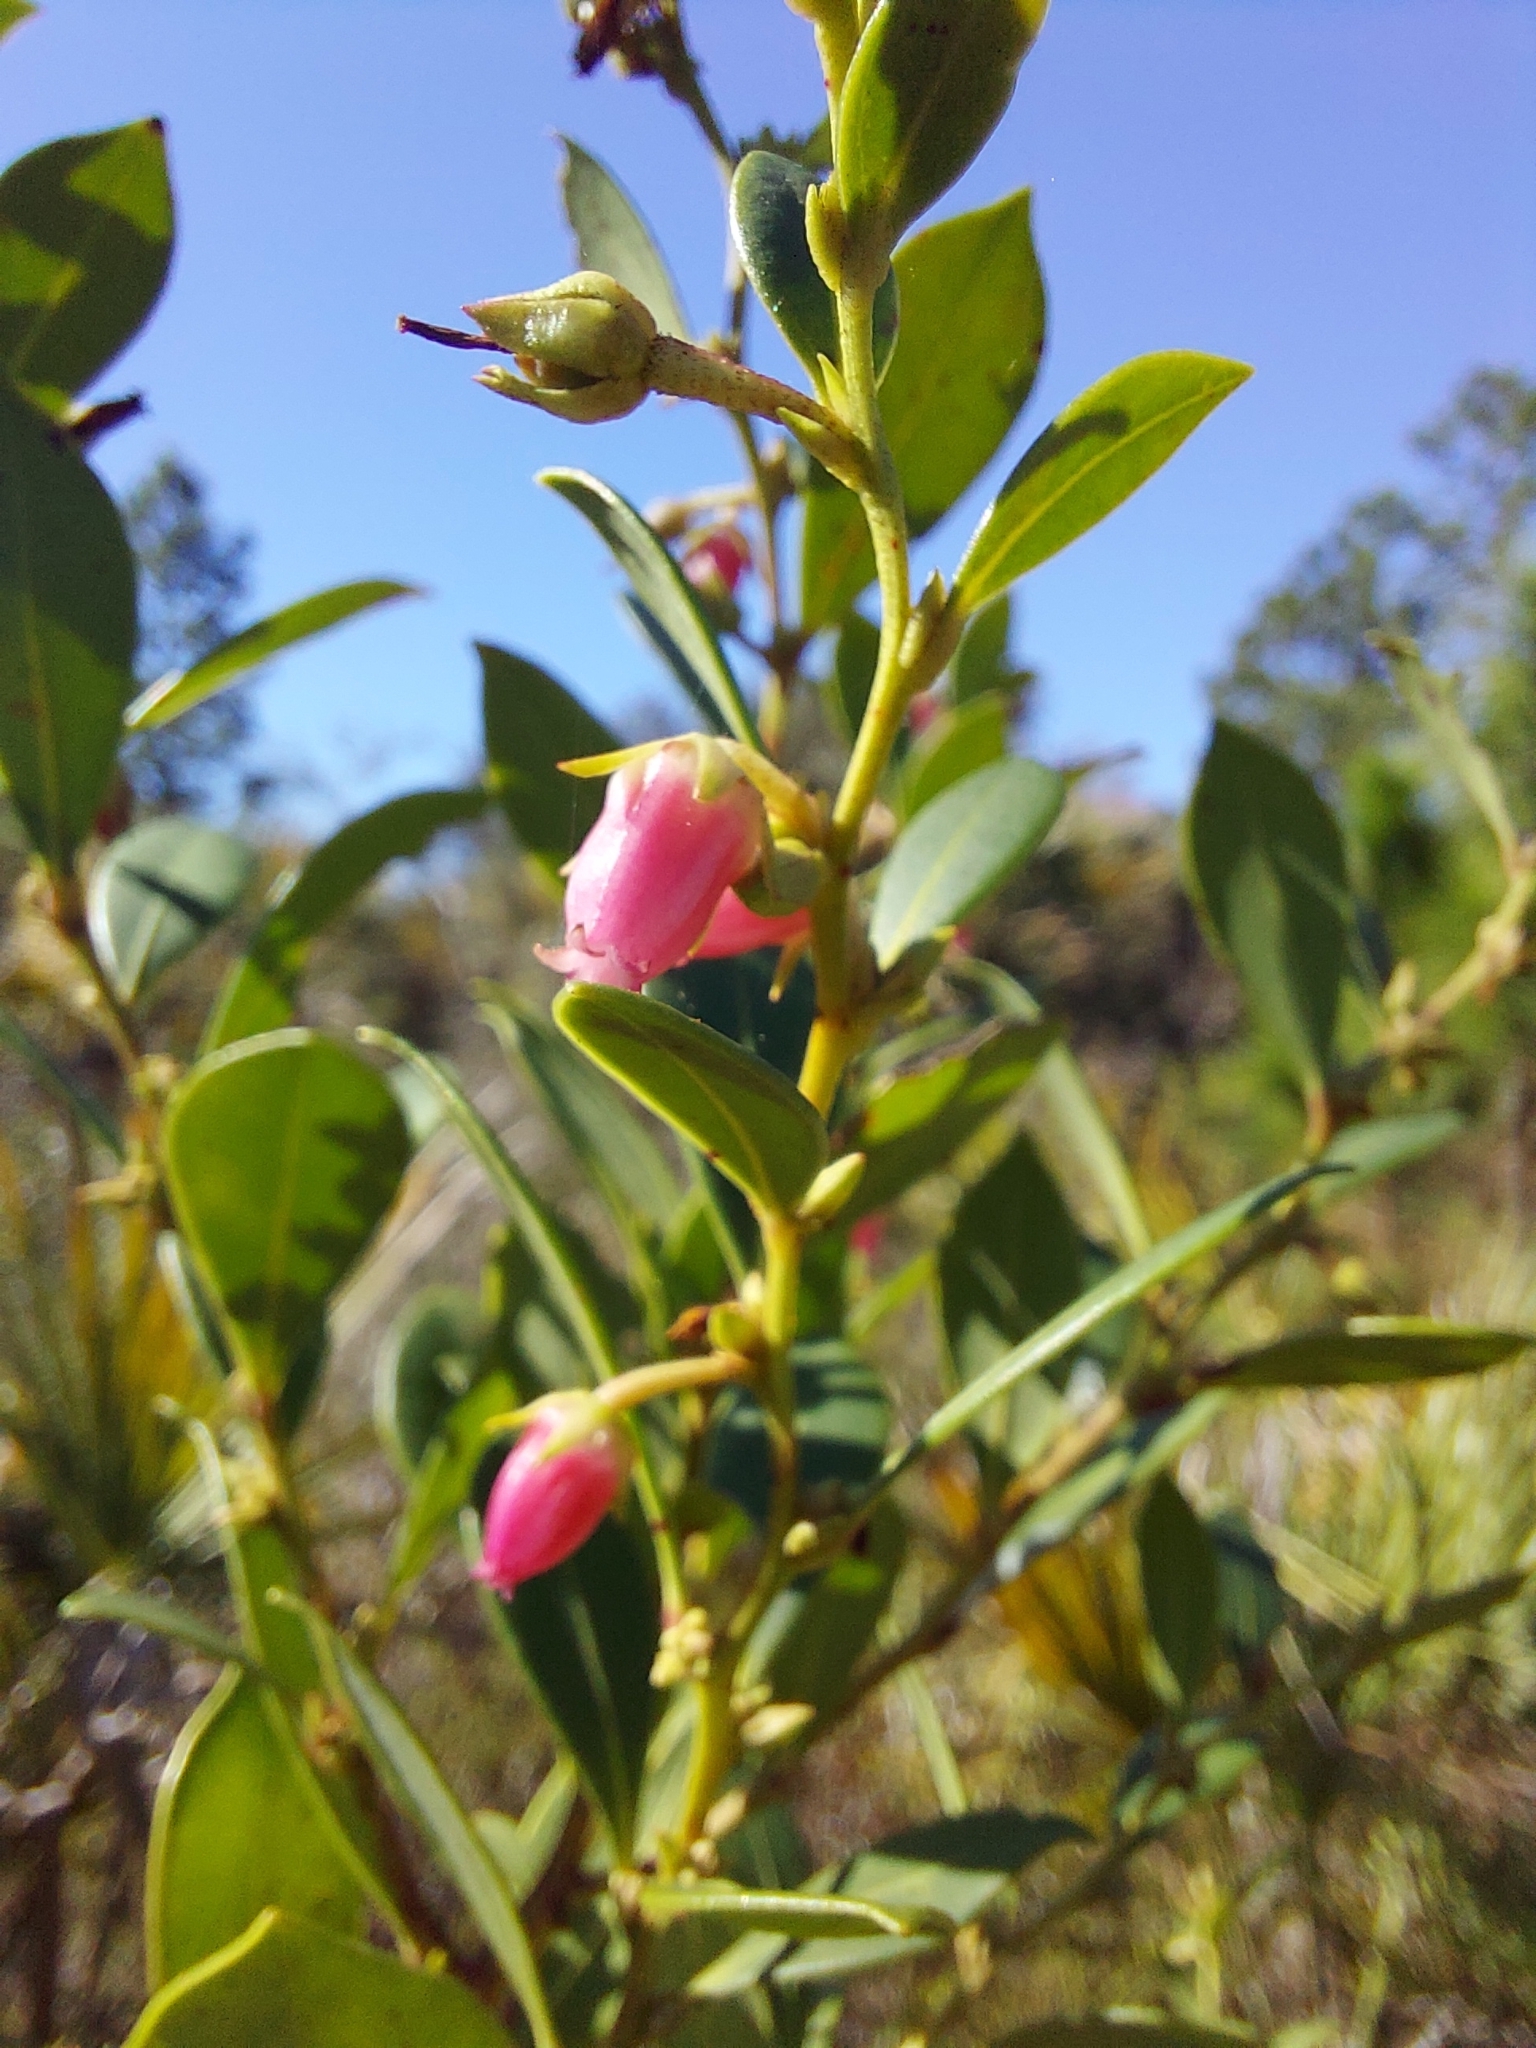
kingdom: Plantae
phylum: Tracheophyta
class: Magnoliopsida
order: Ericales
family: Ericaceae
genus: Lyonia
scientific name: Lyonia lucida
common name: Fetterbush
